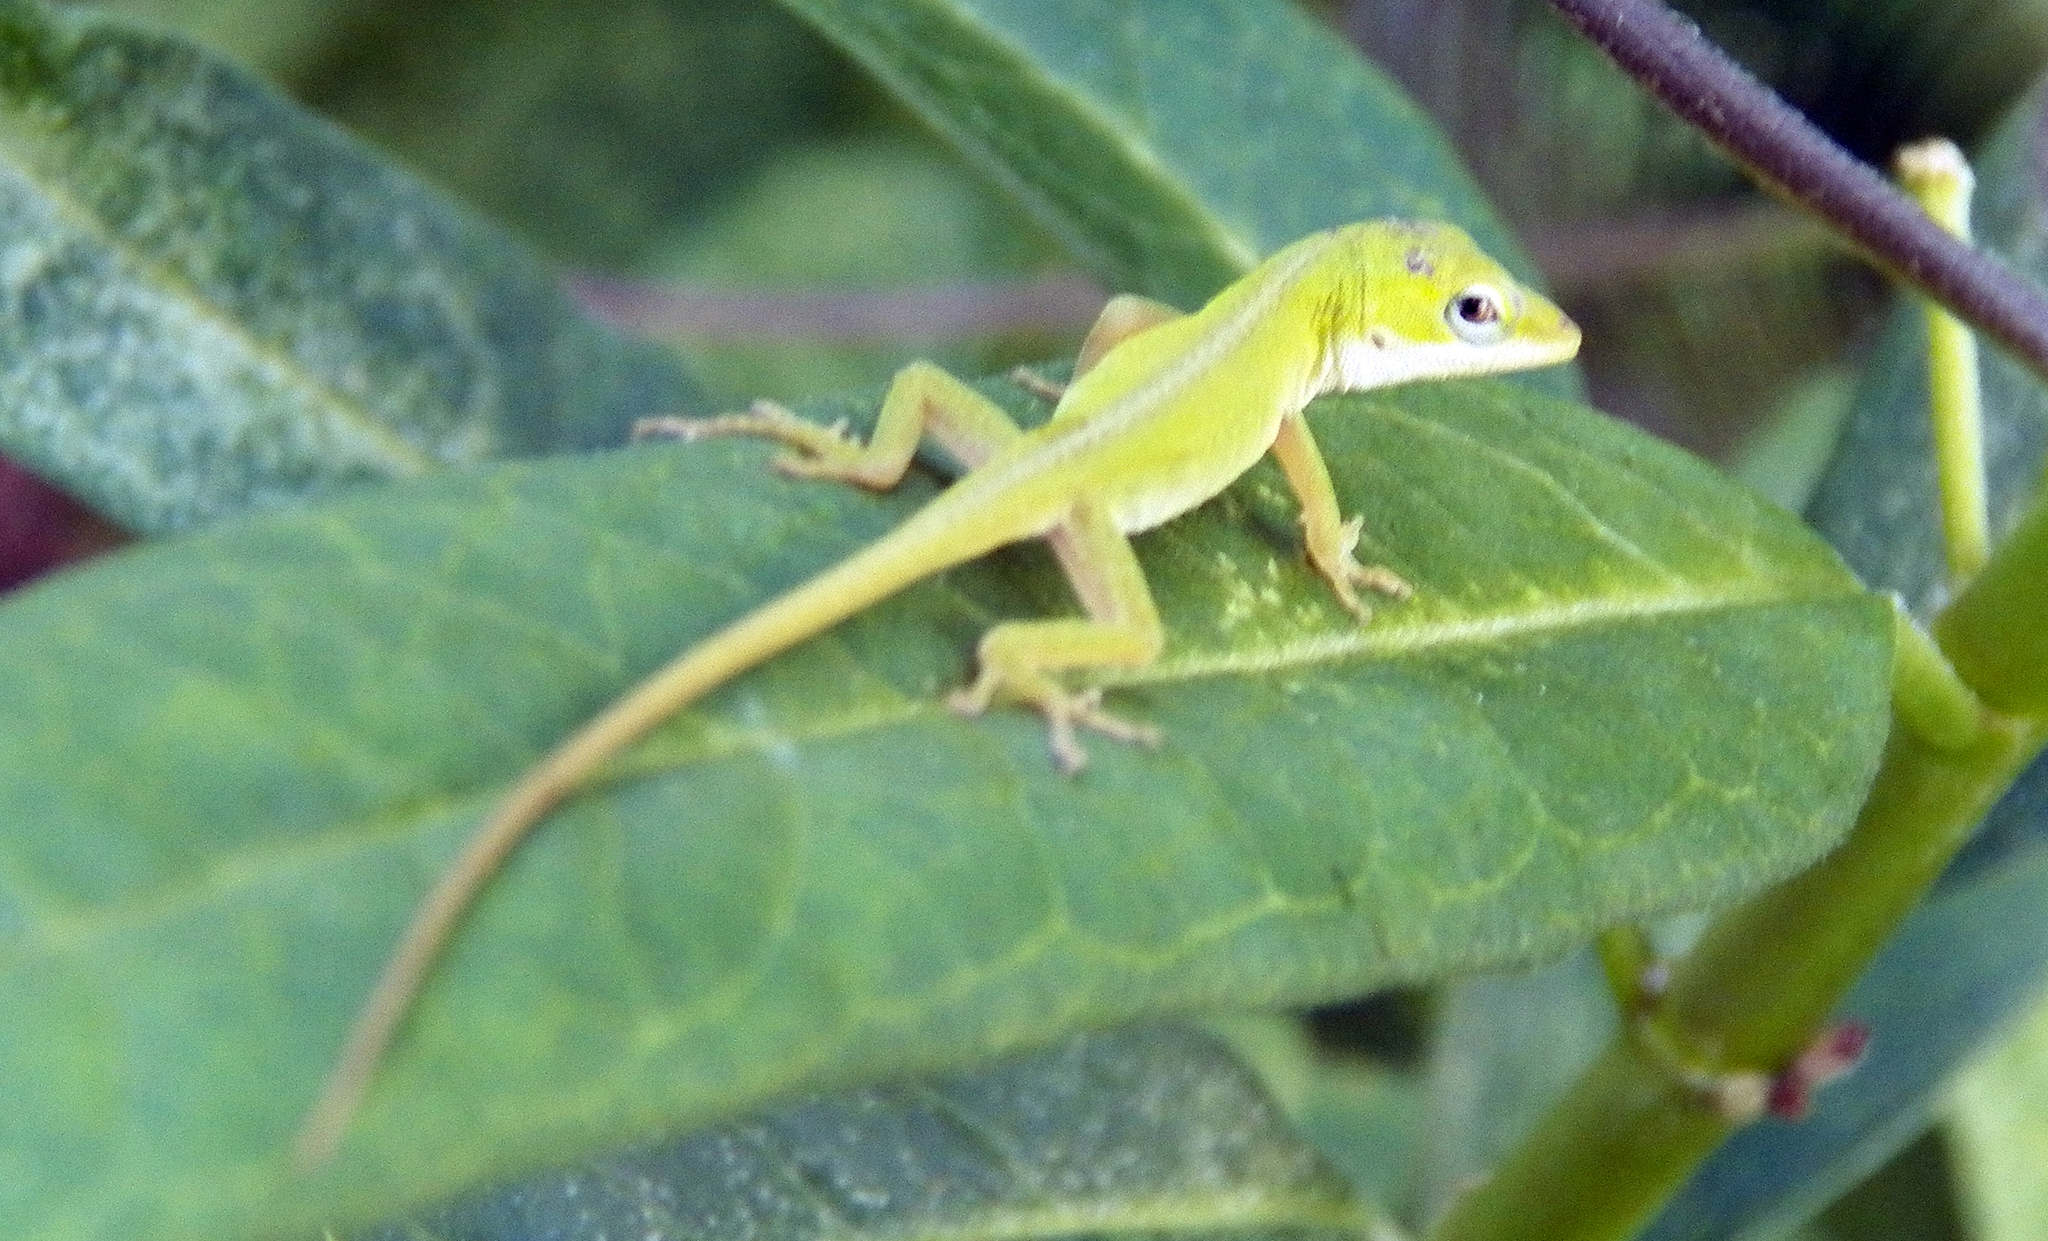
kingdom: Animalia
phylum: Chordata
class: Squamata
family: Dactyloidae
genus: Anolis
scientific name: Anolis carolinensis
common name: Green anole
